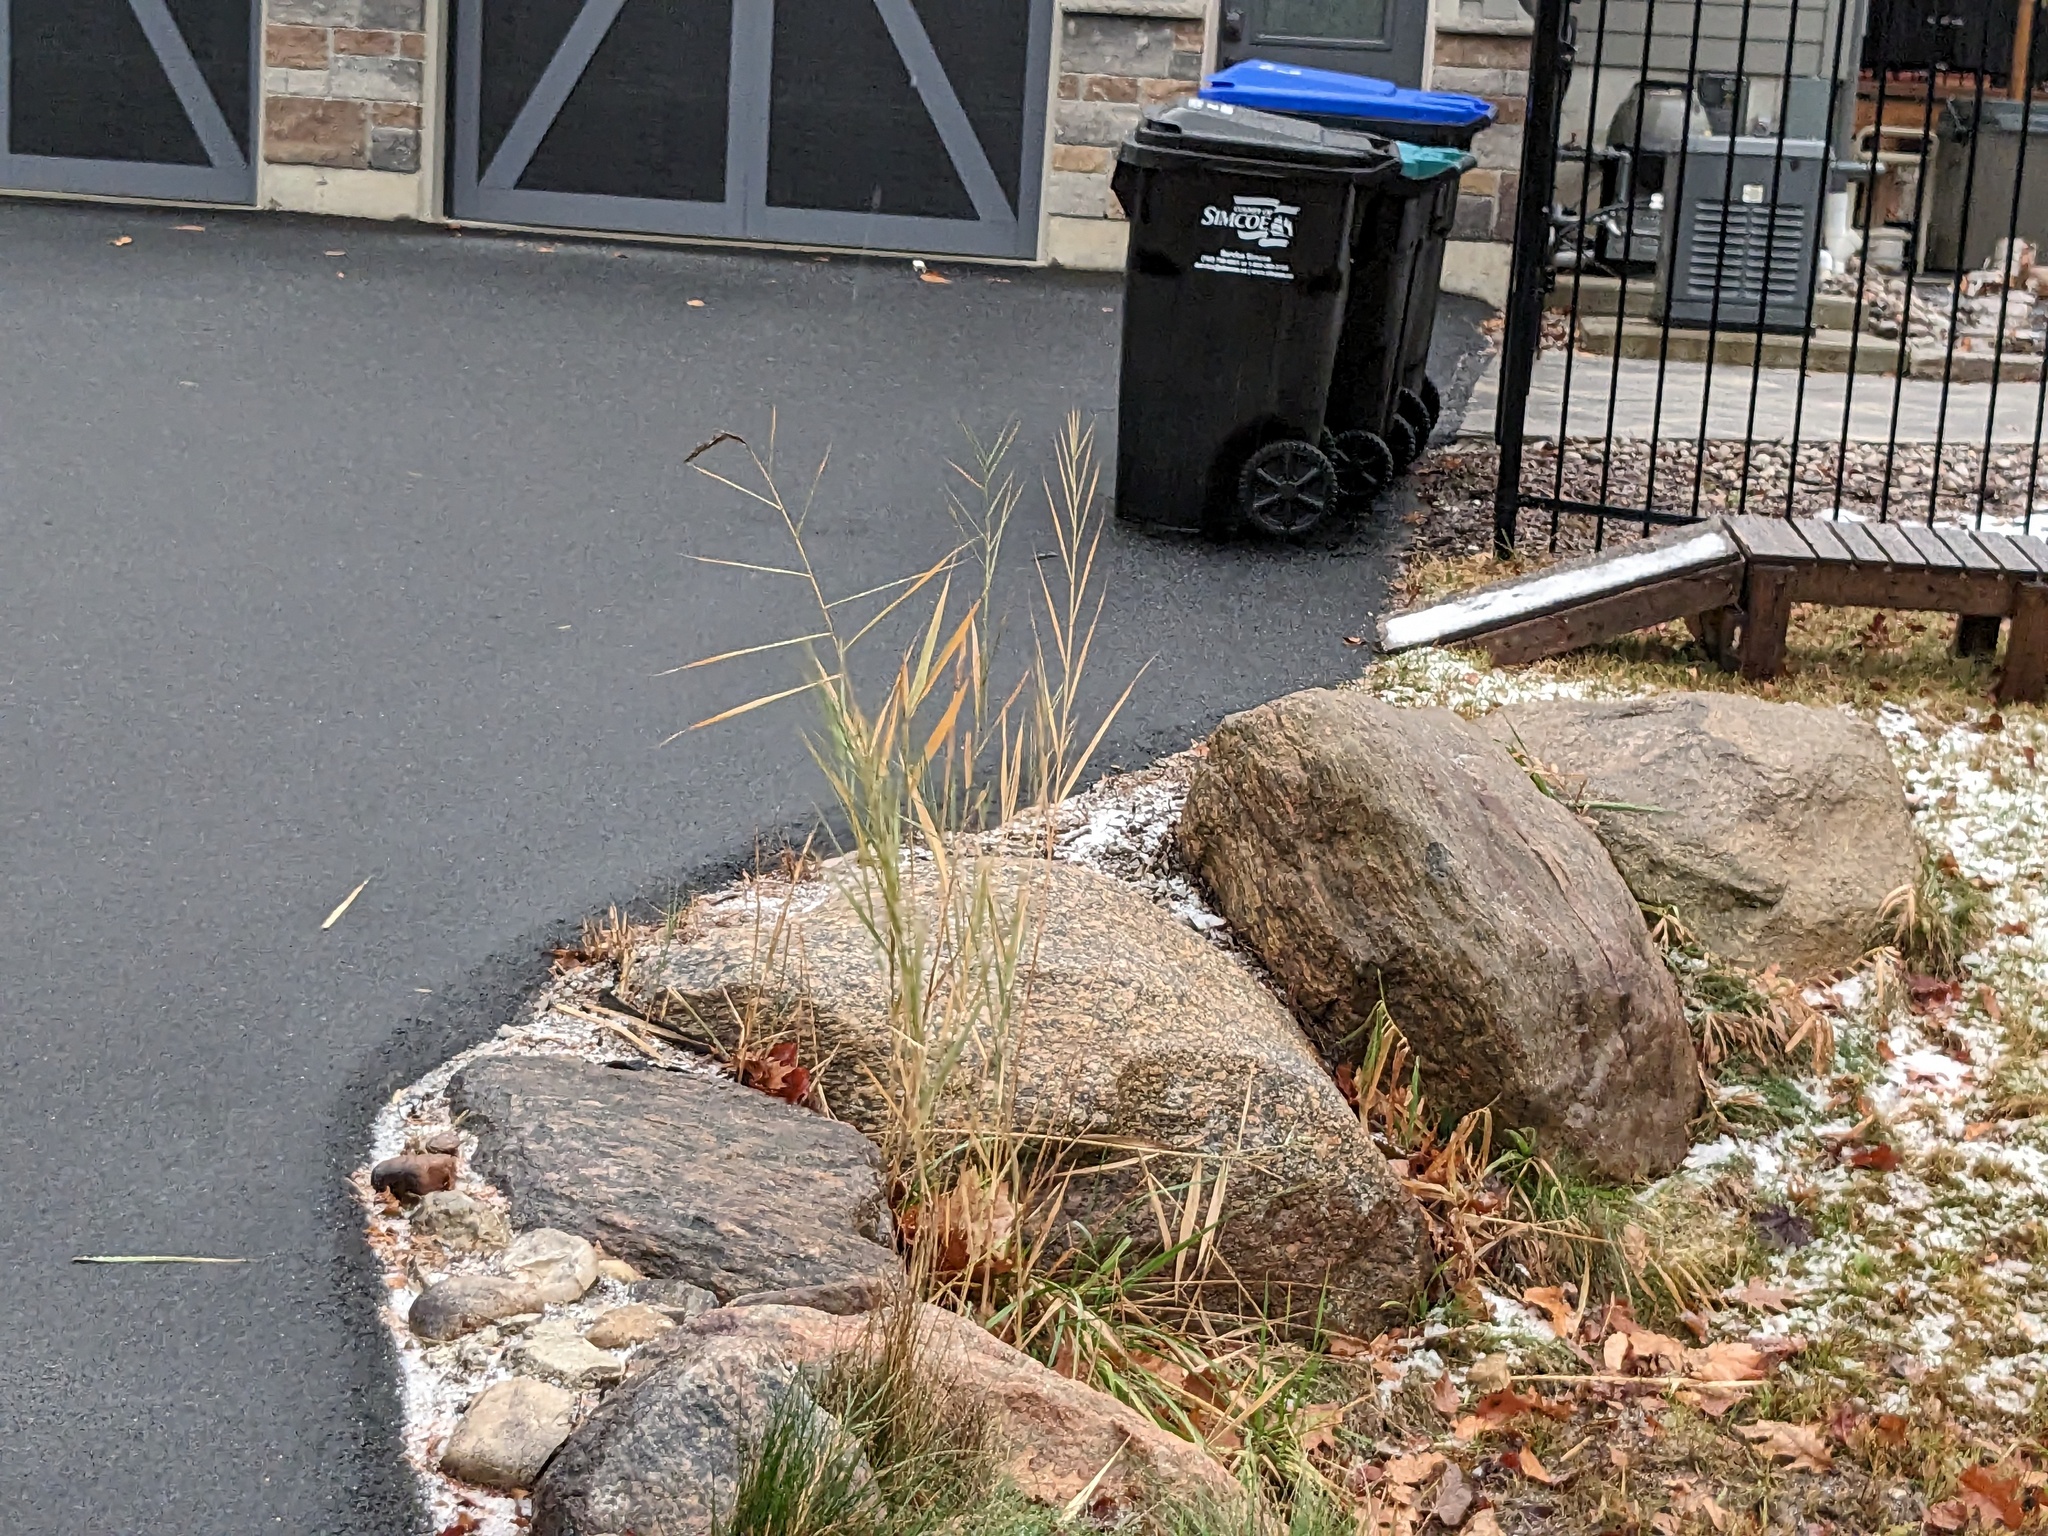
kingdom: Plantae
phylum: Tracheophyta
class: Liliopsida
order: Poales
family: Poaceae
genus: Phragmites
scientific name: Phragmites australis
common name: Common reed
